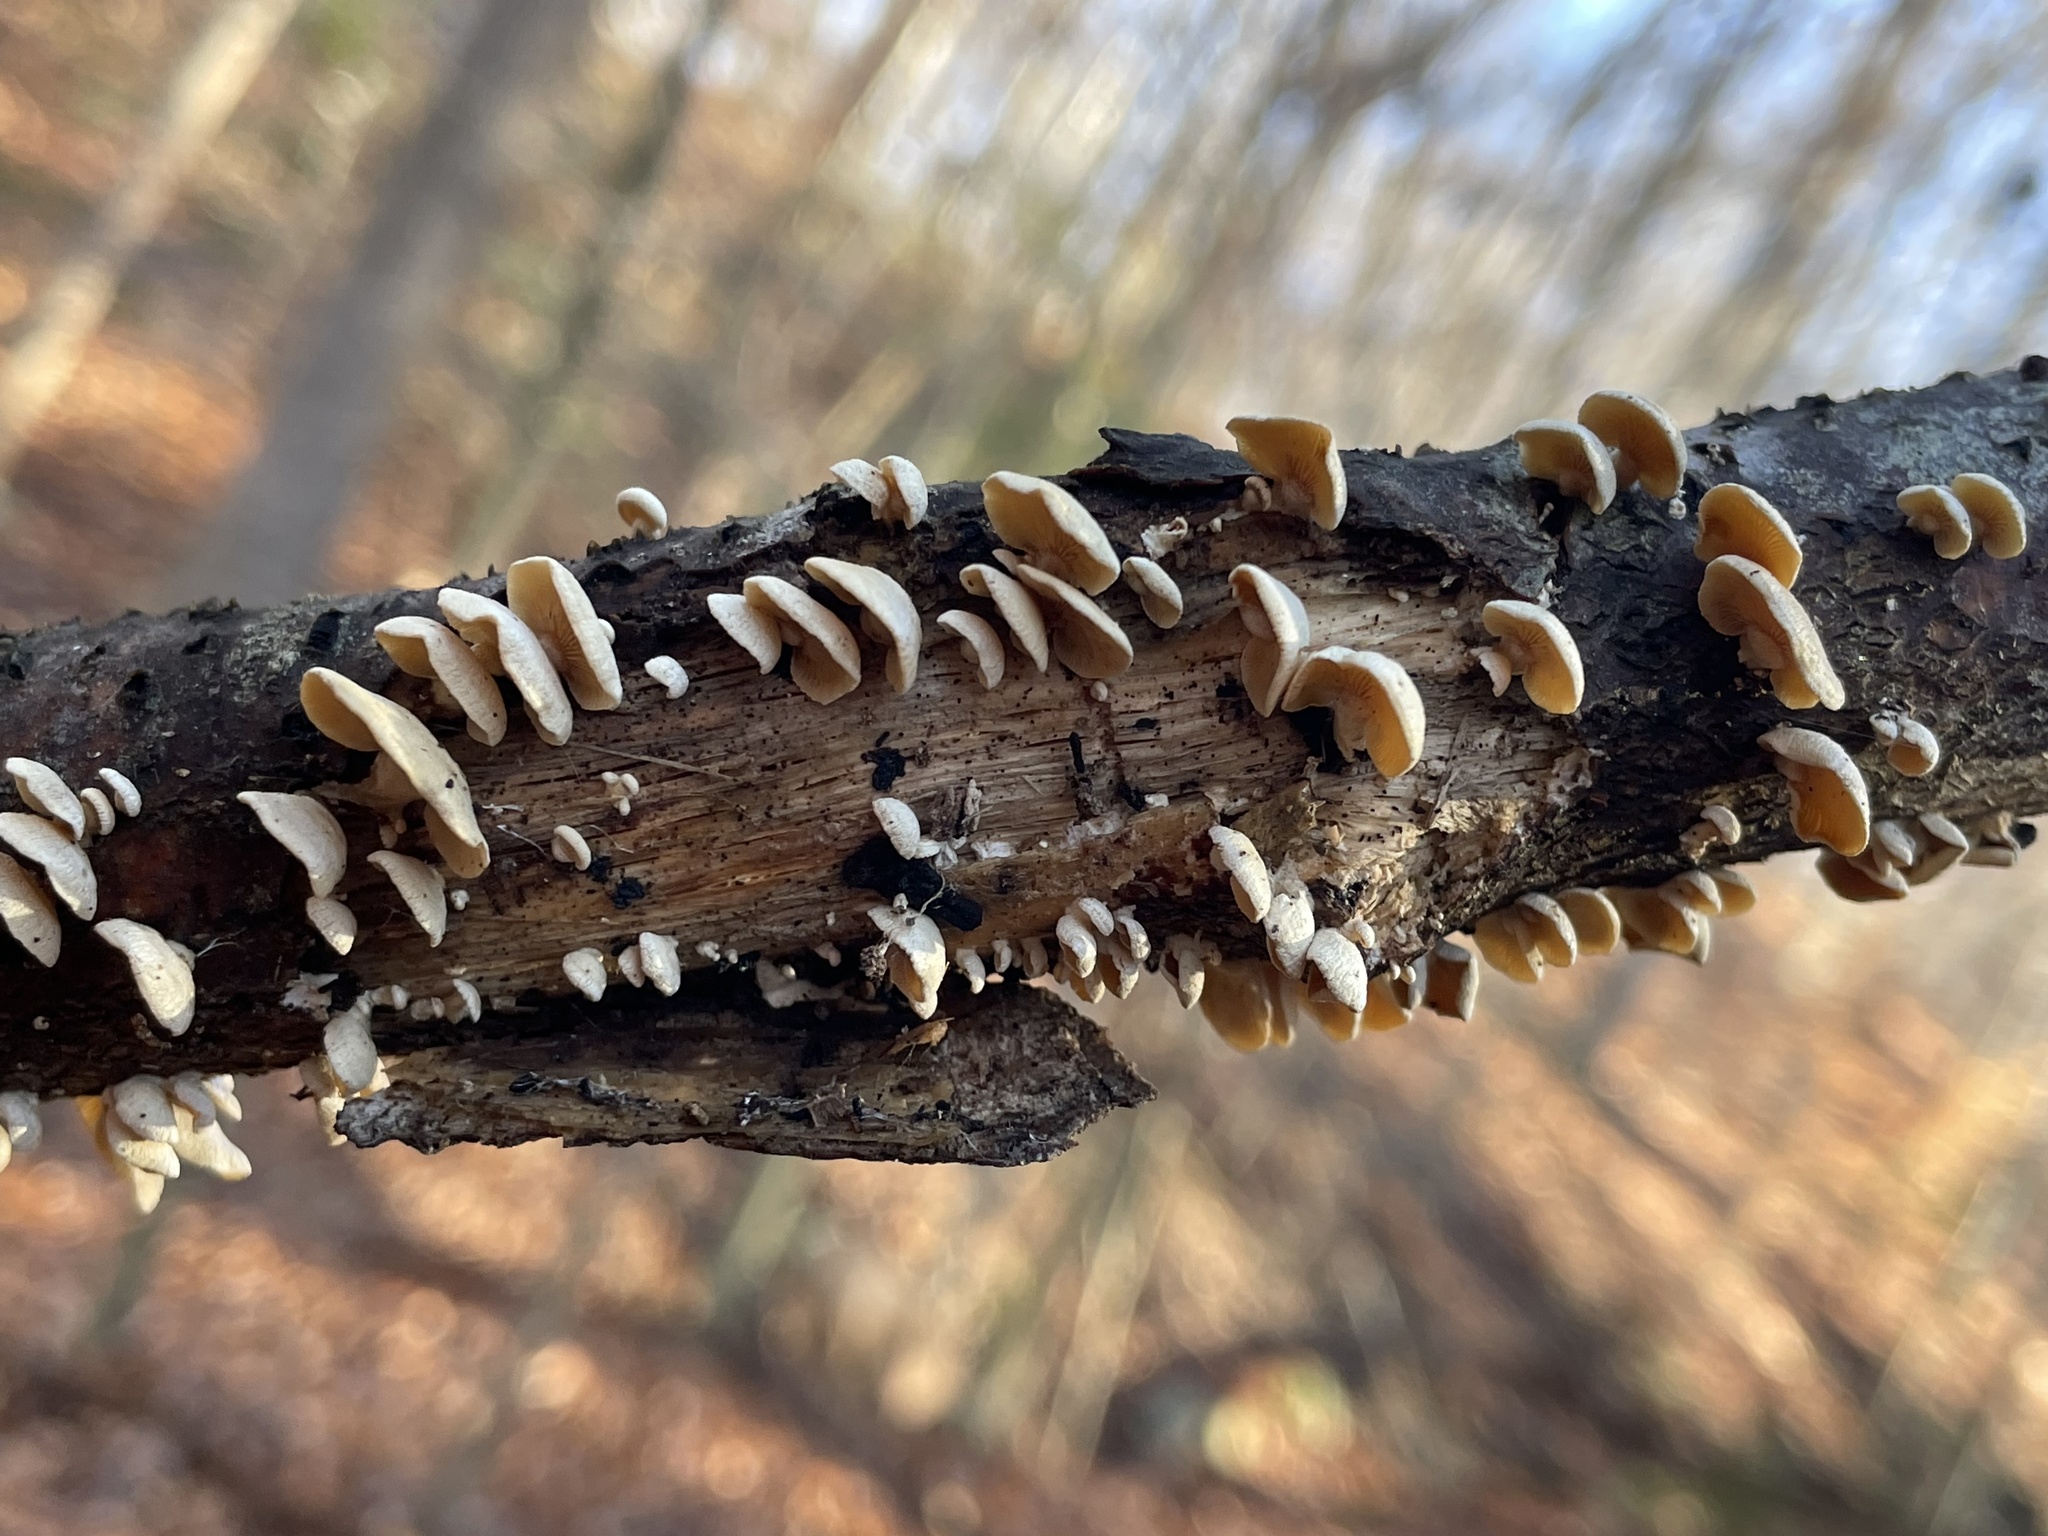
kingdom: Fungi
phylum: Basidiomycota
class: Agaricomycetes
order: Agaricales
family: Mycenaceae
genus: Panellus
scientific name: Panellus stipticus
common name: Bitter oysterling
